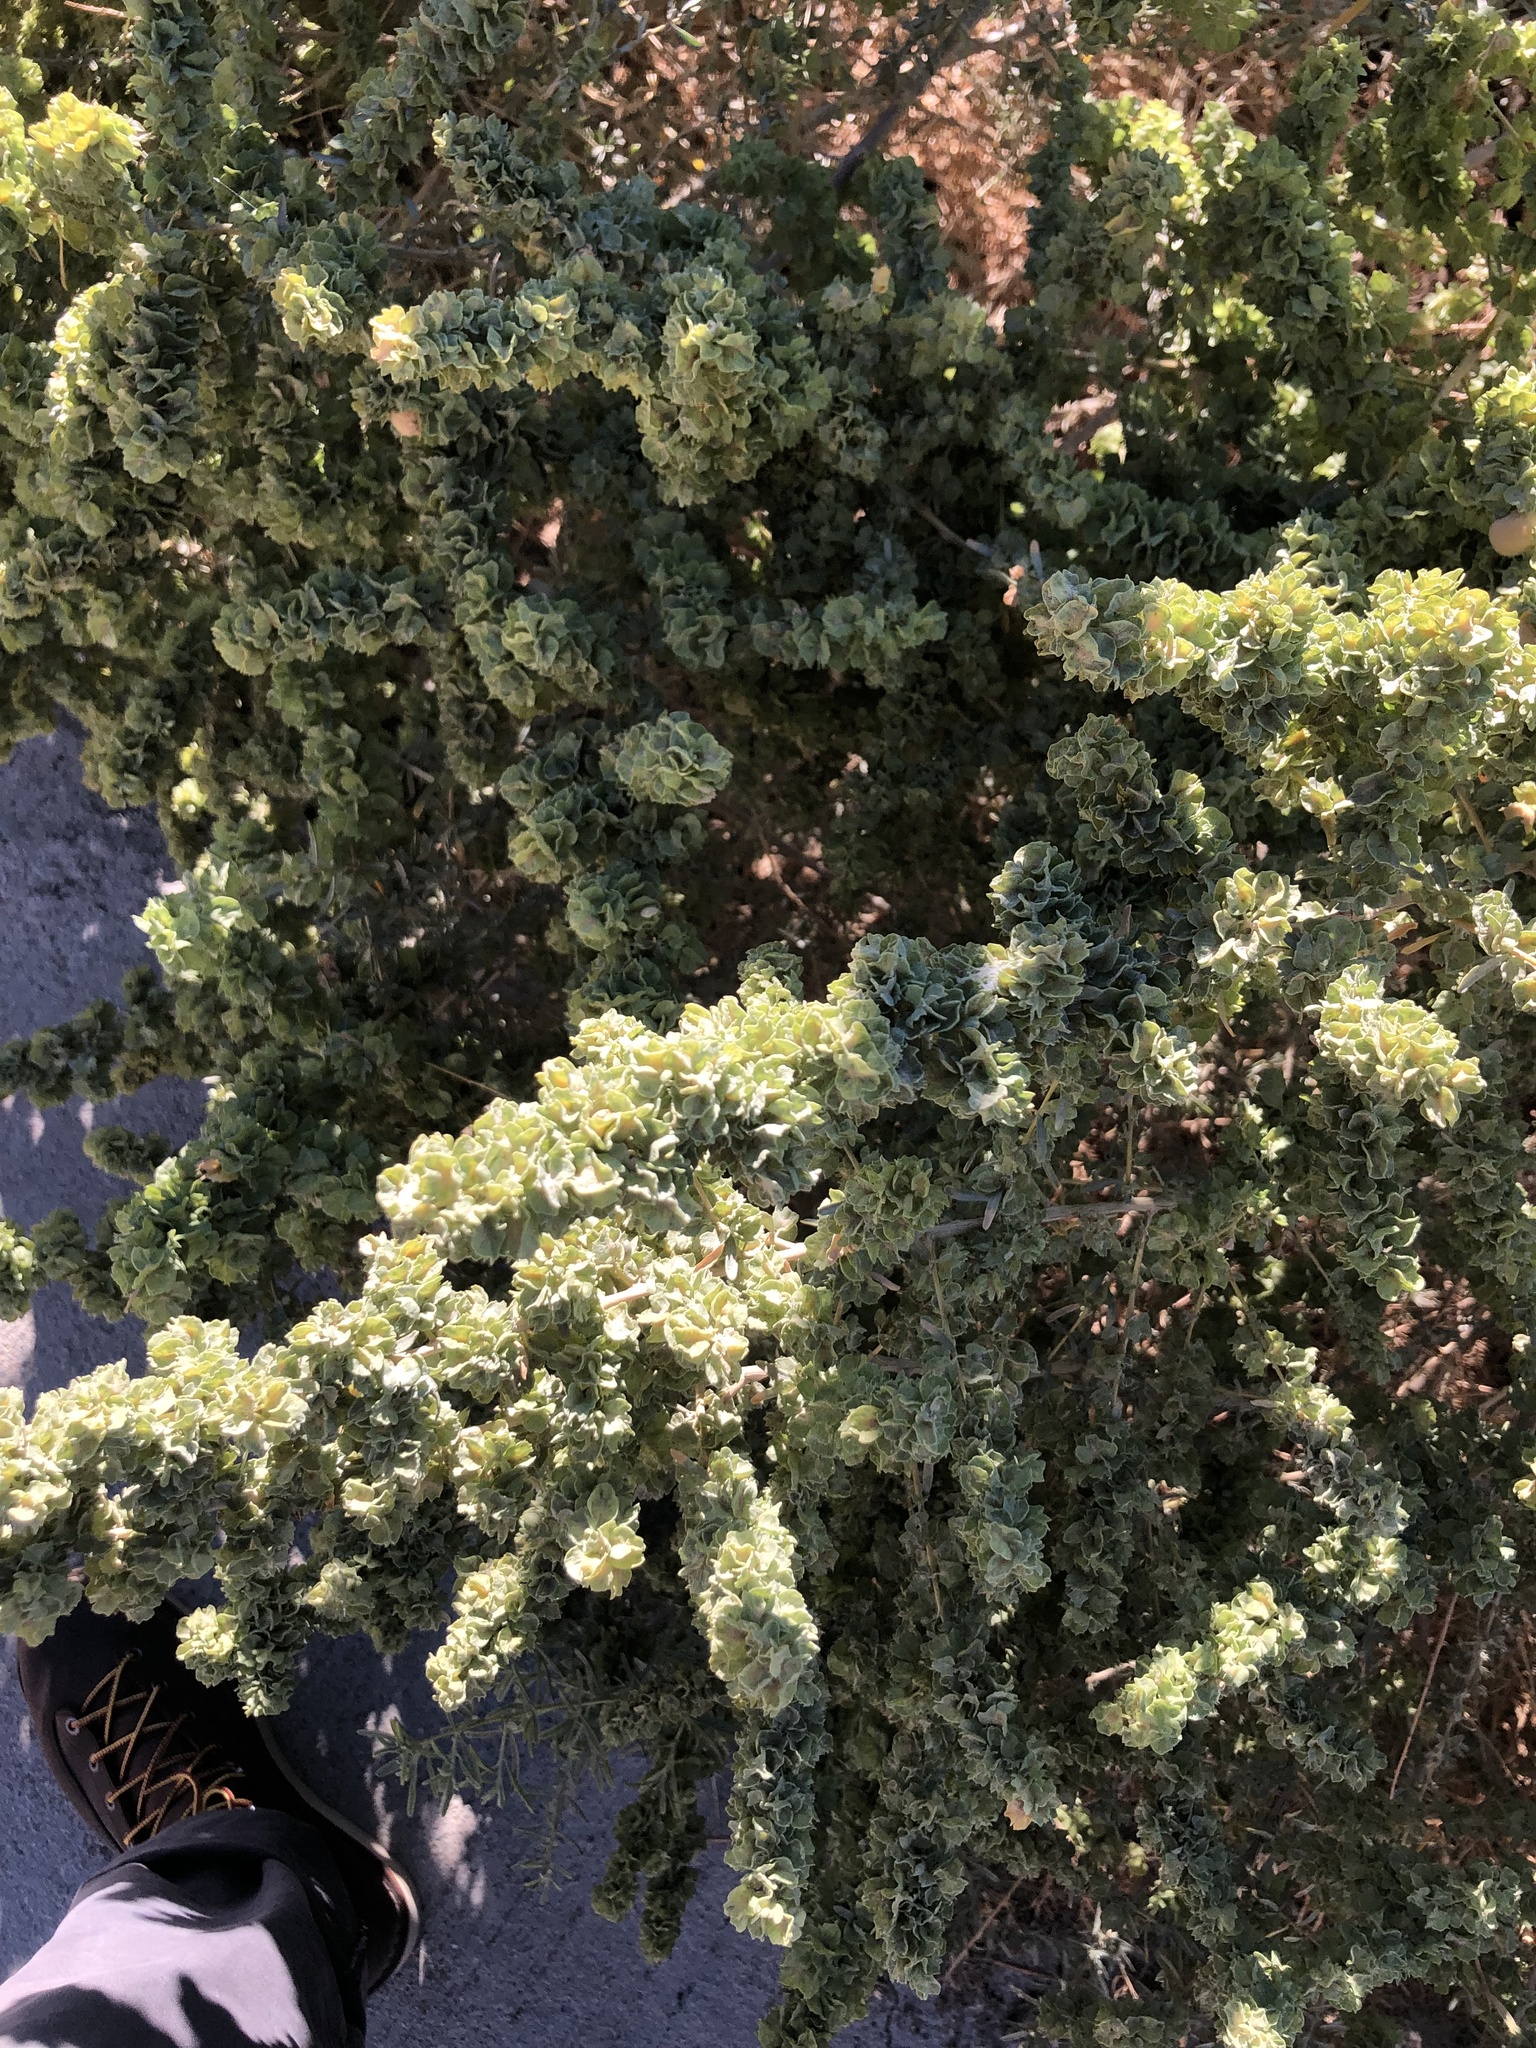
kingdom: Plantae
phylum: Tracheophyta
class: Magnoliopsida
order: Caryophyllales
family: Amaranthaceae
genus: Atriplex
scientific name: Atriplex canescens
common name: Four-wing saltbush
